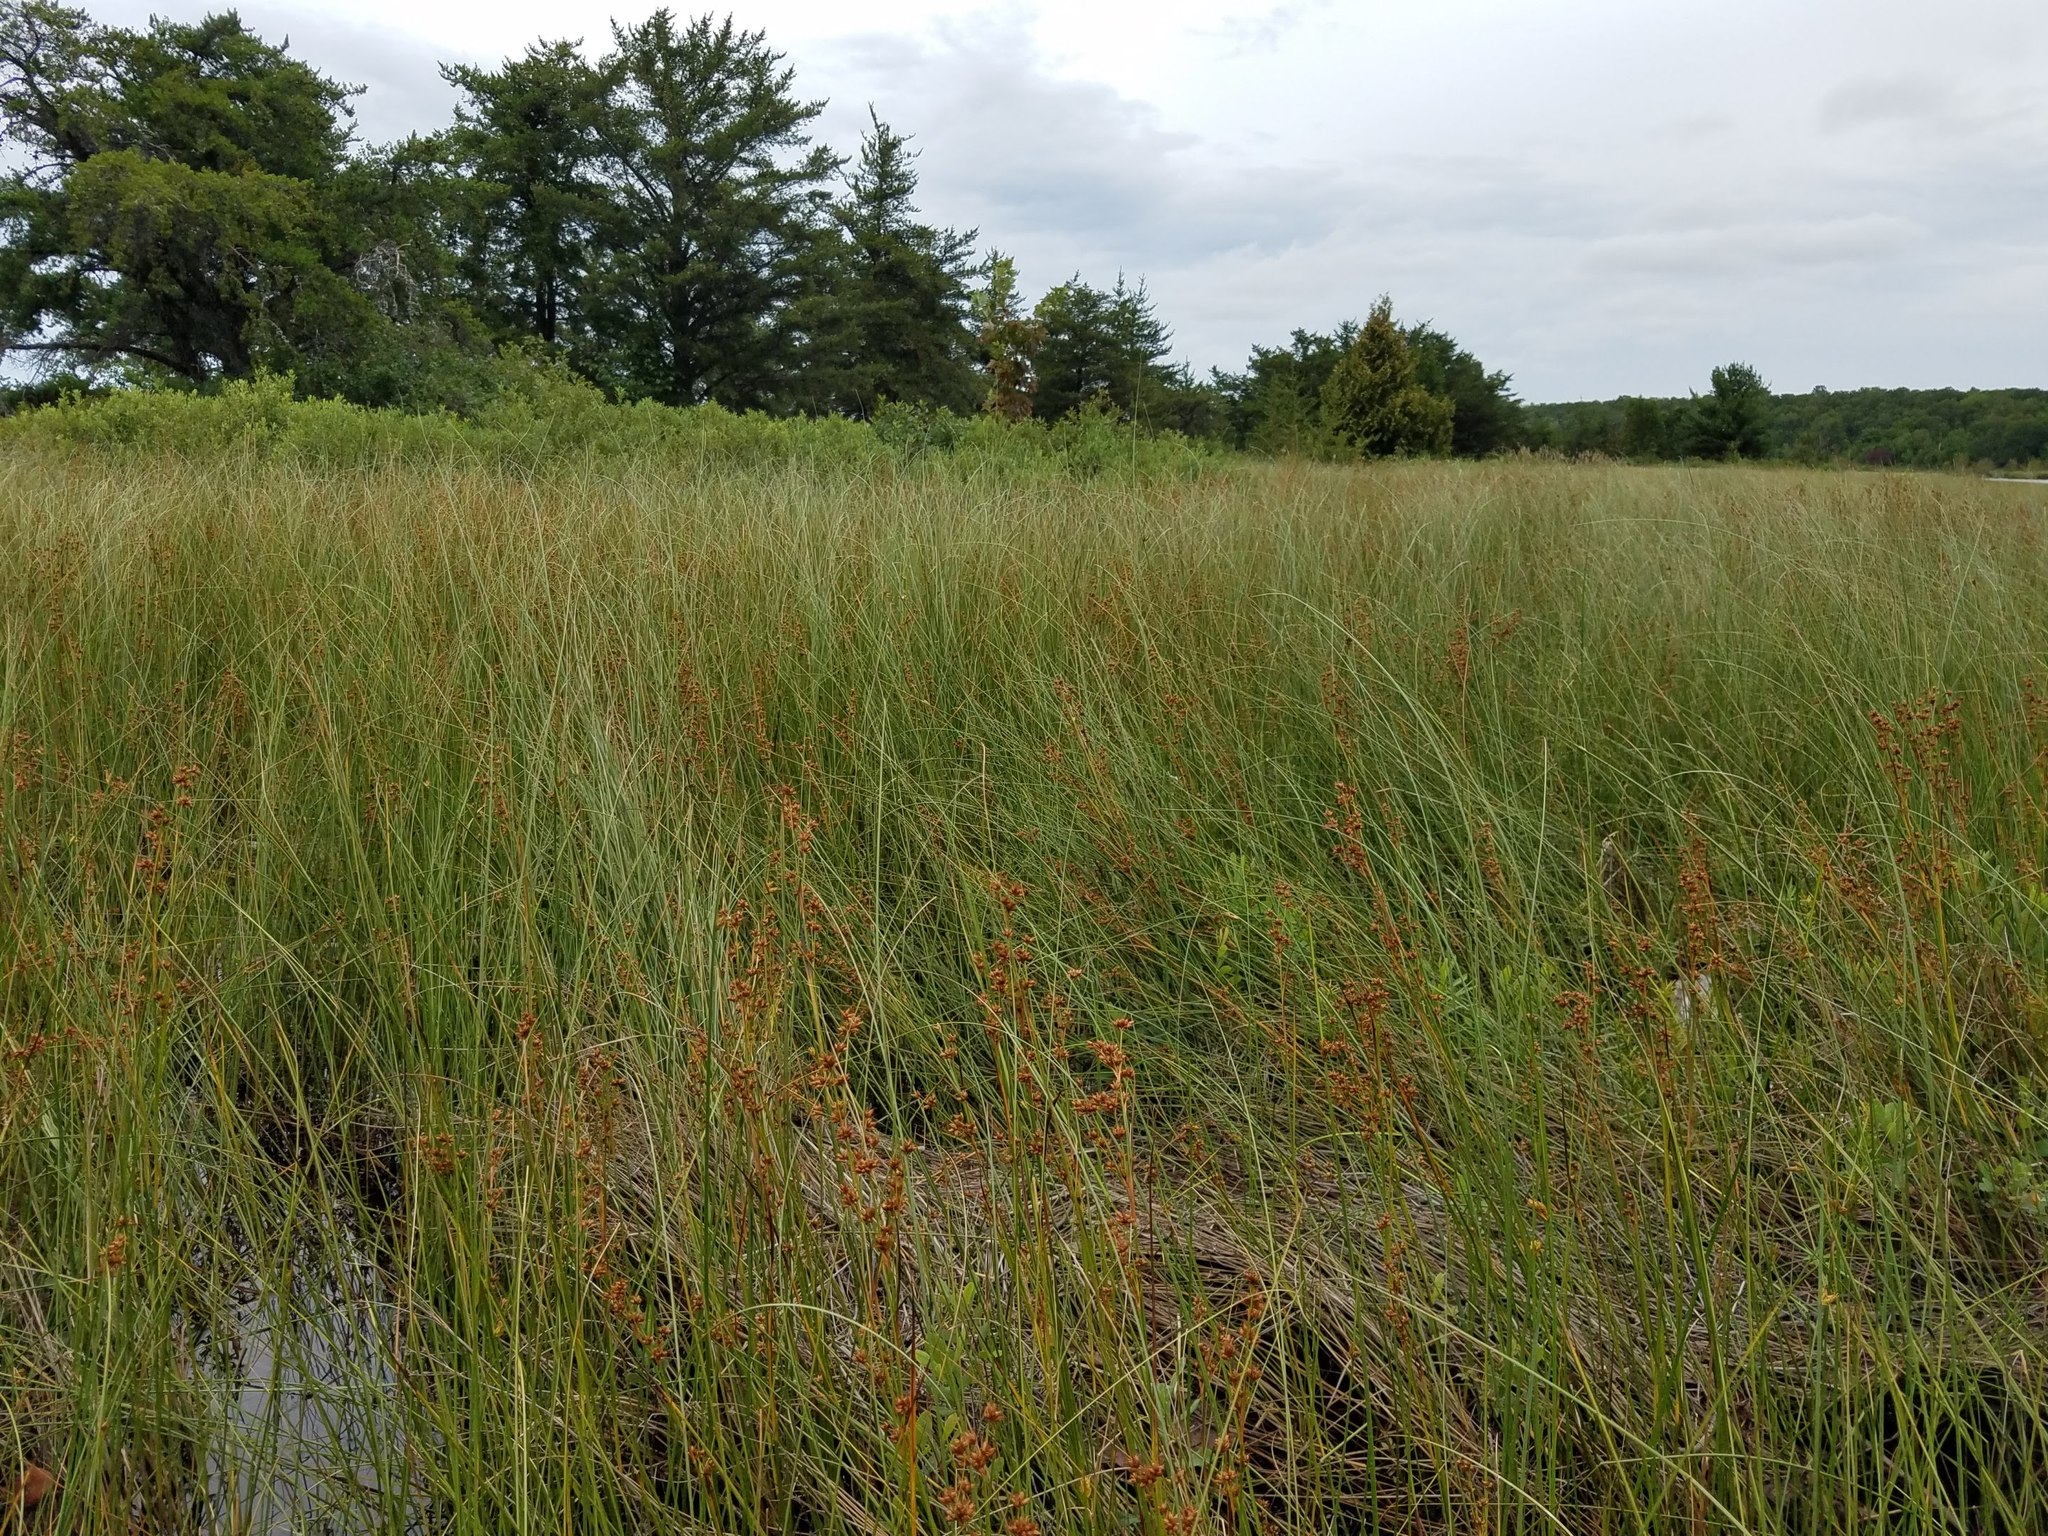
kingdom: Plantae
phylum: Tracheophyta
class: Liliopsida
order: Poales
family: Cyperaceae
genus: Cladium
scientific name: Cladium mariscoides
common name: Smooth sawgrass
